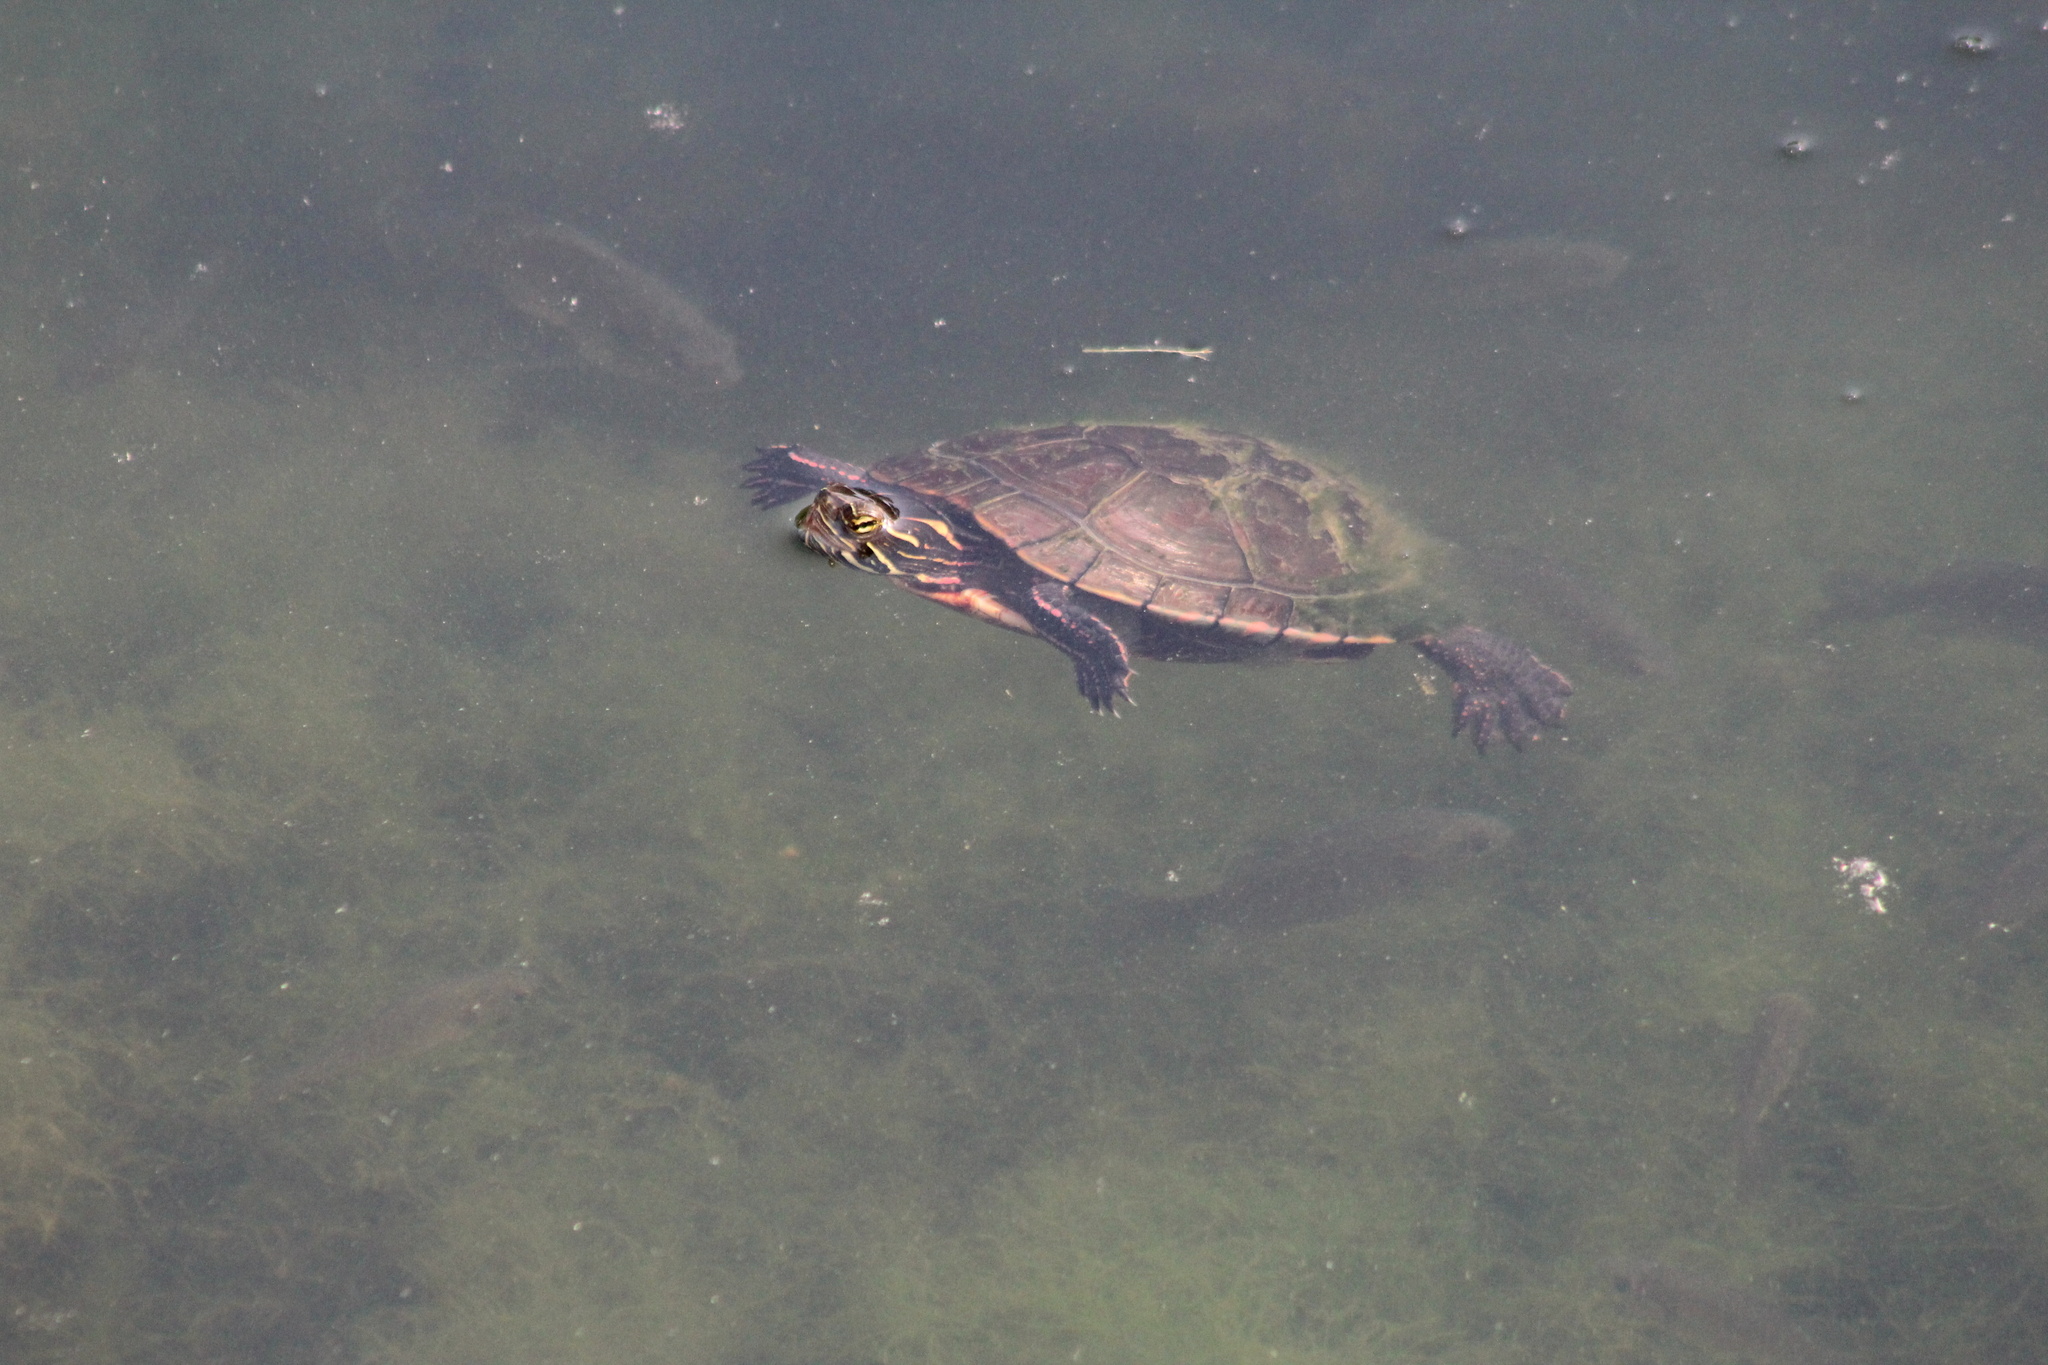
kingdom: Animalia
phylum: Chordata
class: Testudines
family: Emydidae
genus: Chrysemys
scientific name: Chrysemys picta
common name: Painted turtle
